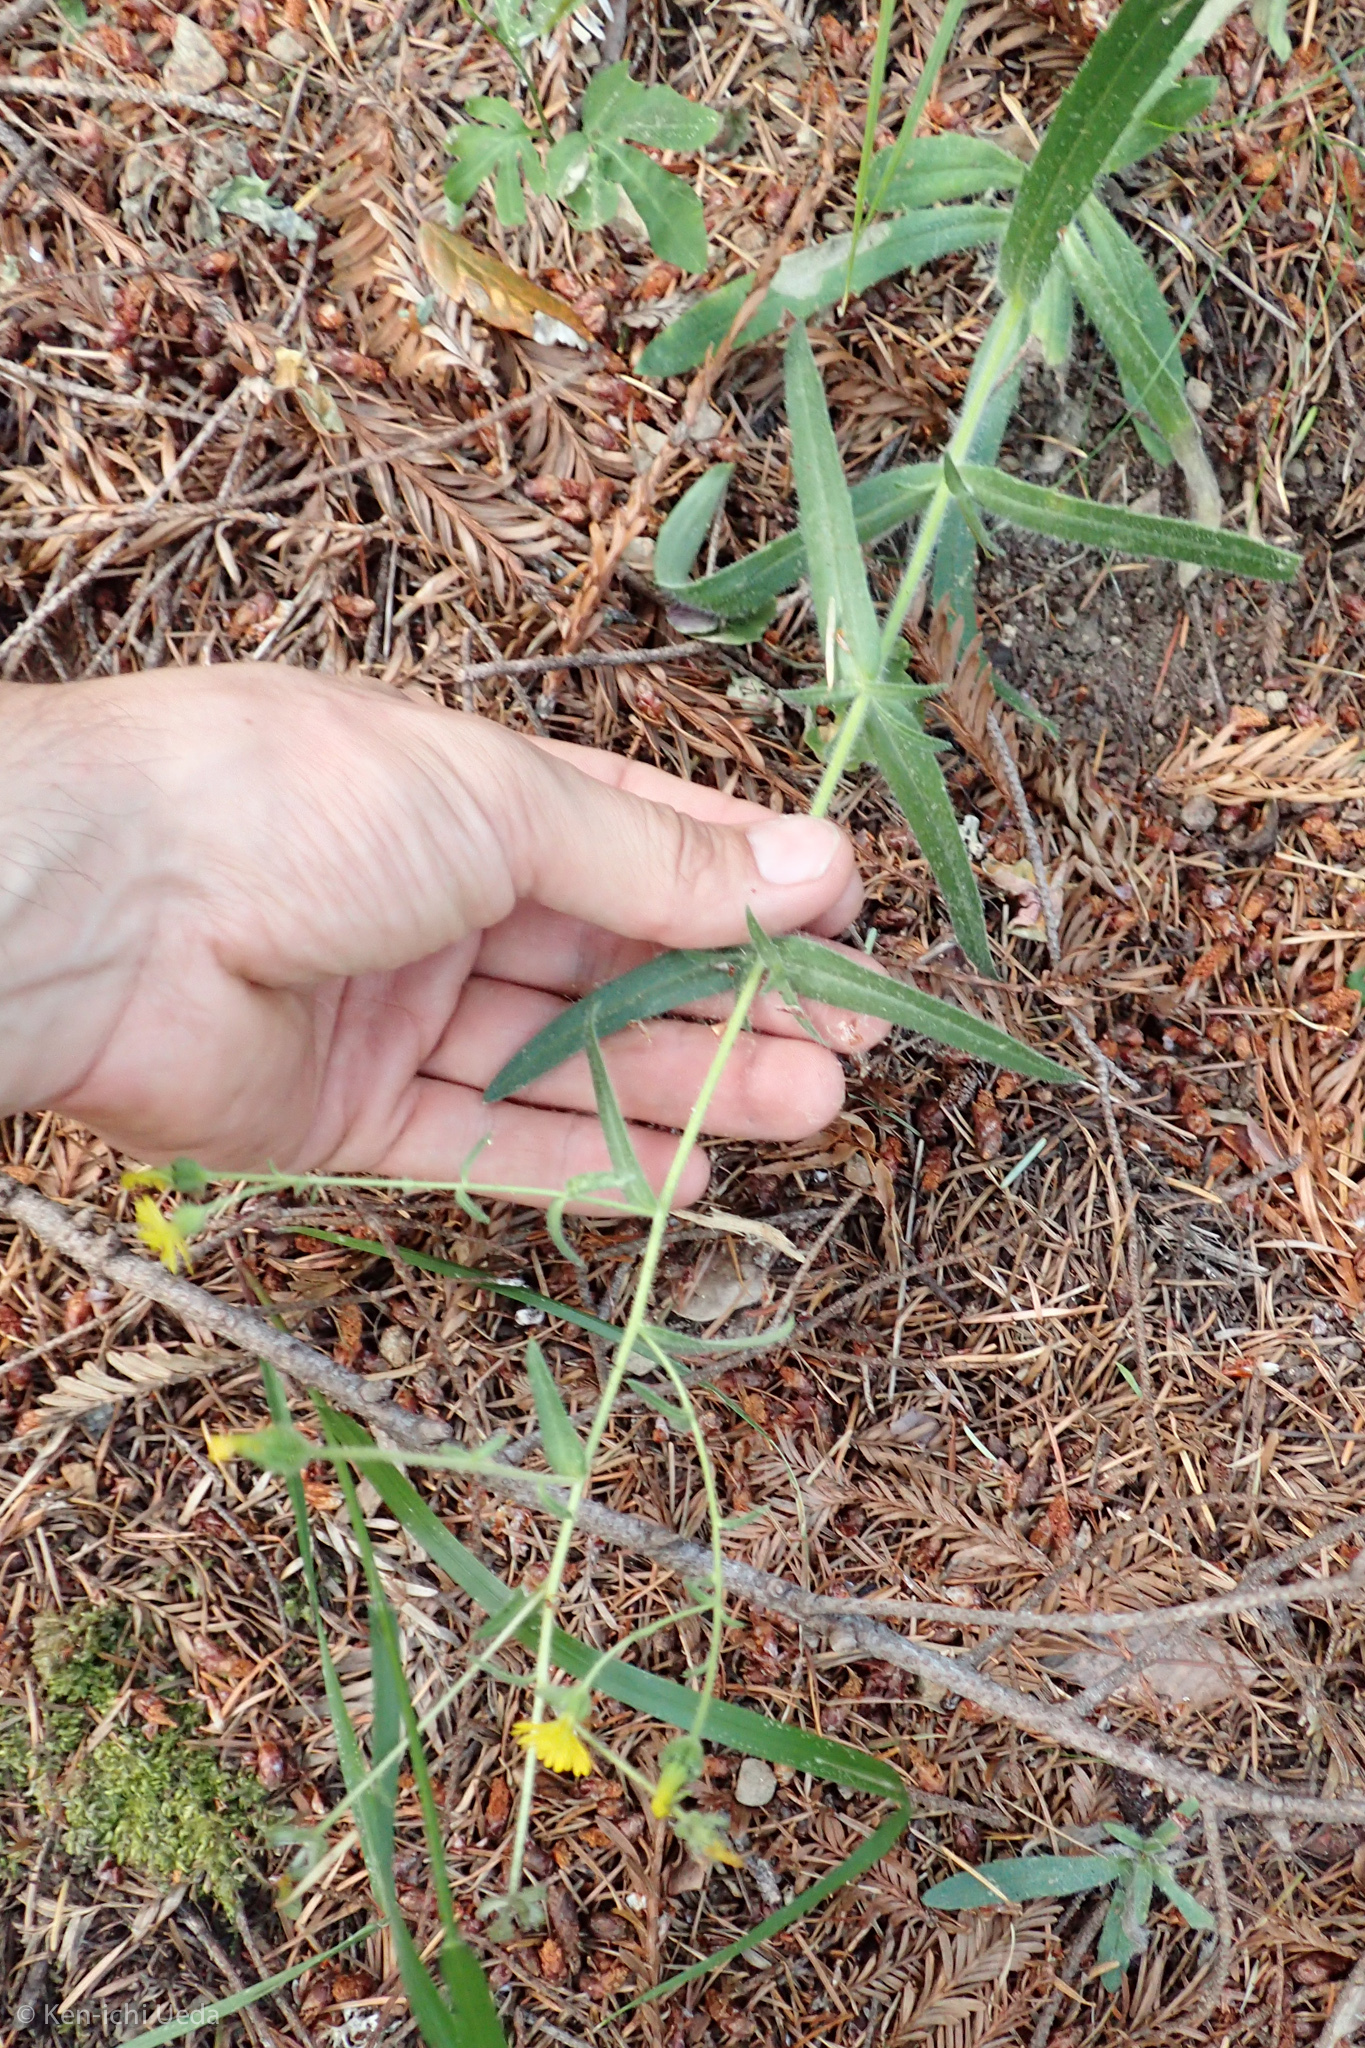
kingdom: Plantae
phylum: Tracheophyta
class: Magnoliopsida
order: Asterales
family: Asteraceae
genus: Anisocarpus
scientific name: Anisocarpus madioides
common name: Woodland madia
